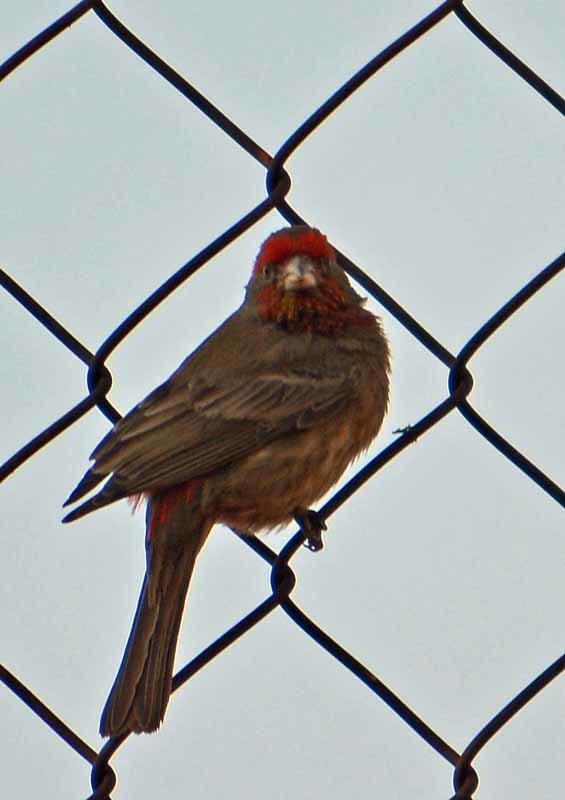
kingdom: Animalia
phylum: Chordata
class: Aves
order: Passeriformes
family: Fringillidae
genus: Haemorhous
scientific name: Haemorhous mexicanus
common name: House finch
